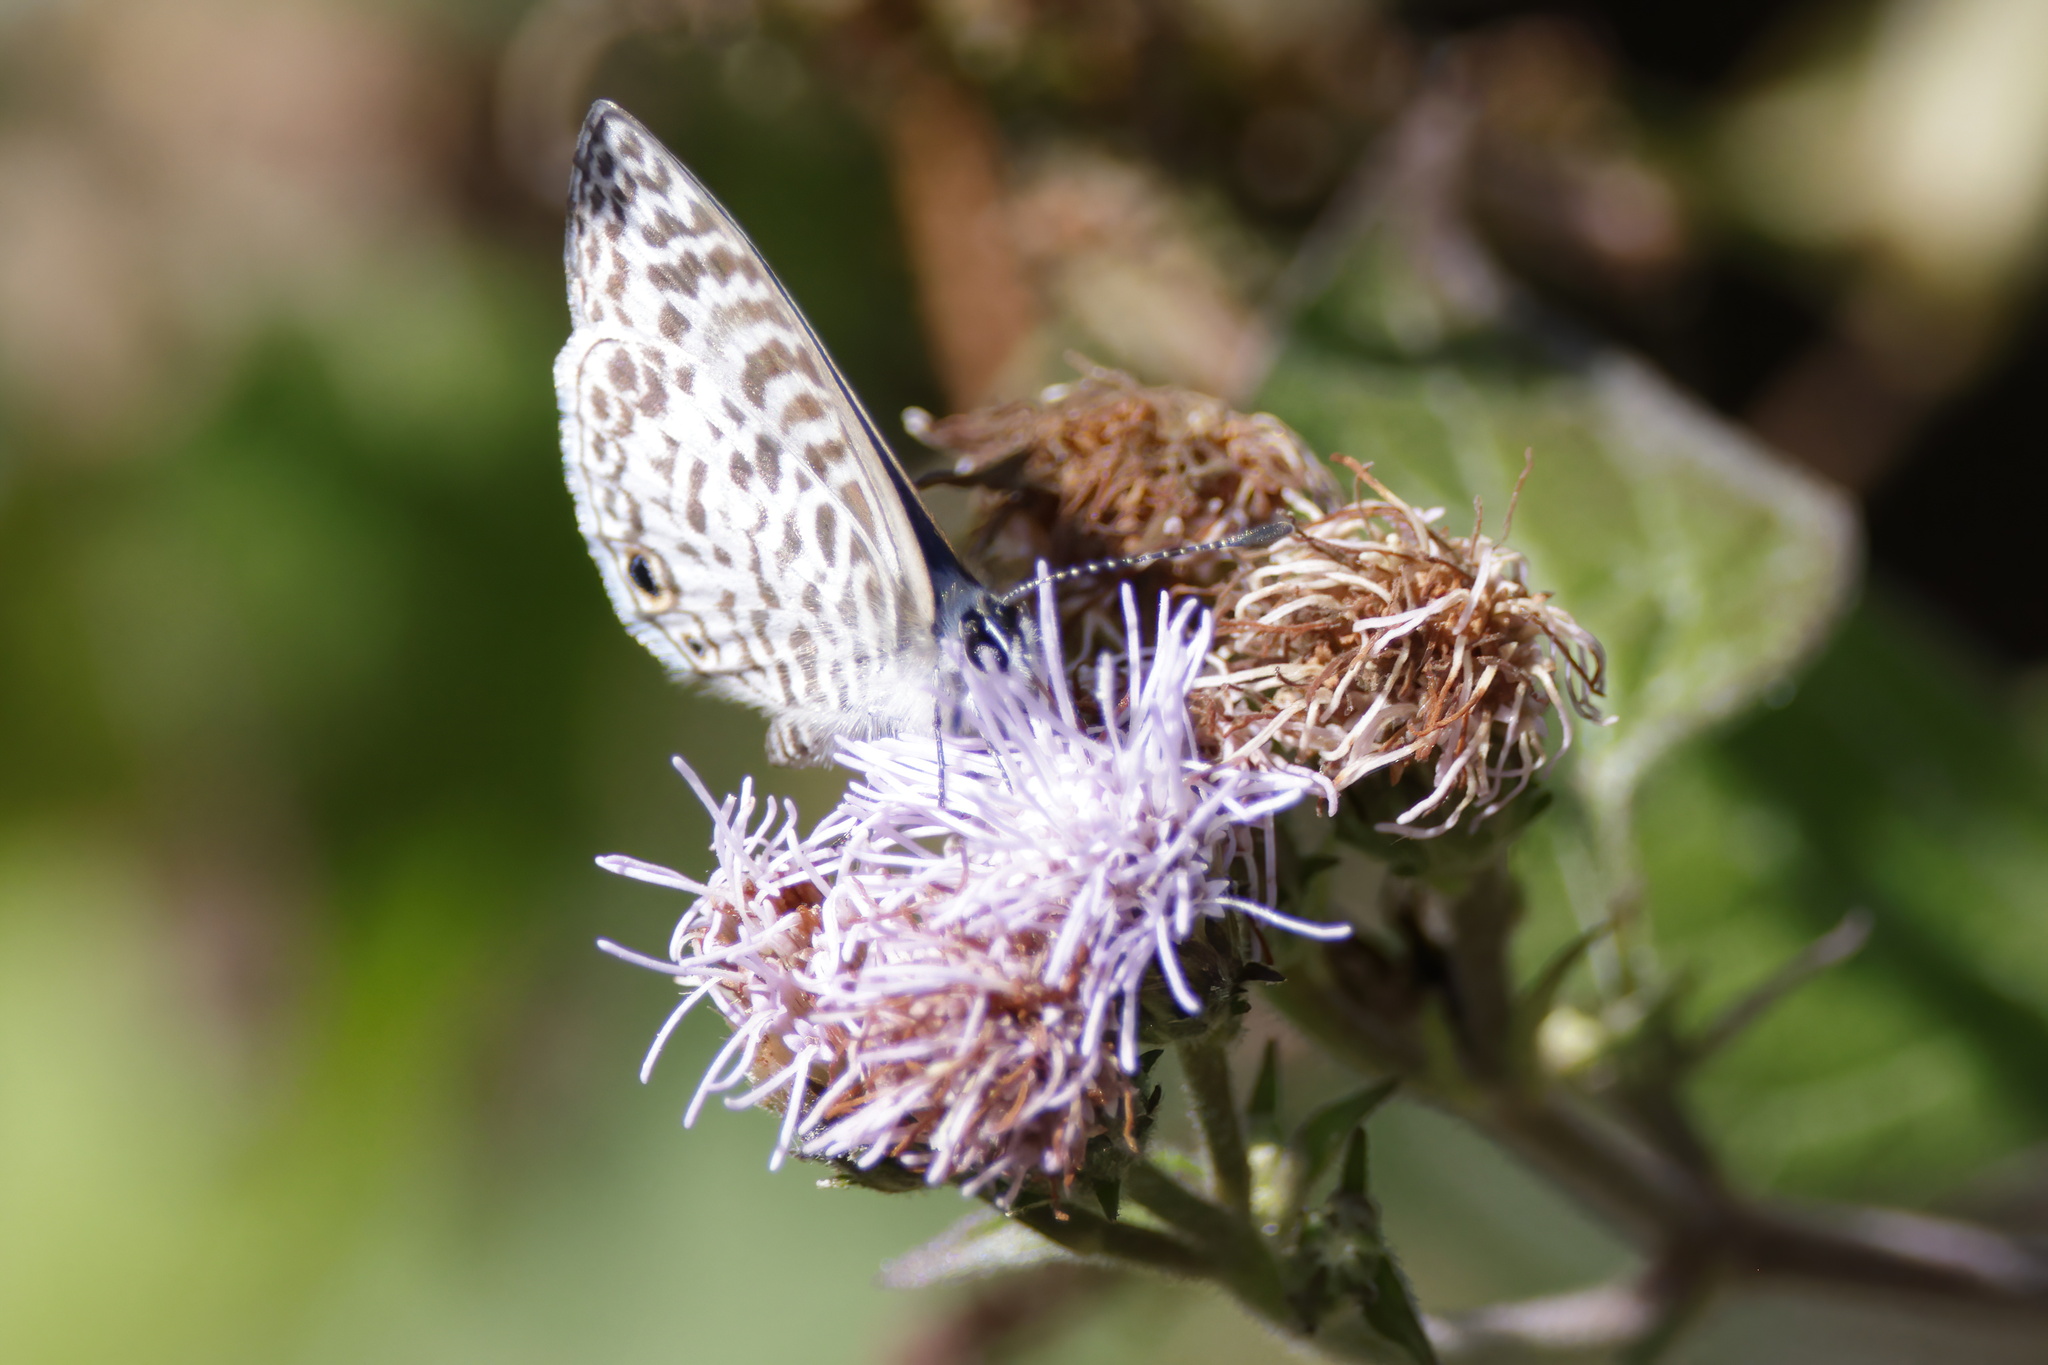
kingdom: Animalia
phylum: Arthropoda
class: Insecta
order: Lepidoptera
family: Lycaenidae
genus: Leptotes
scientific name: Leptotes cassius
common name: Cassius blue
